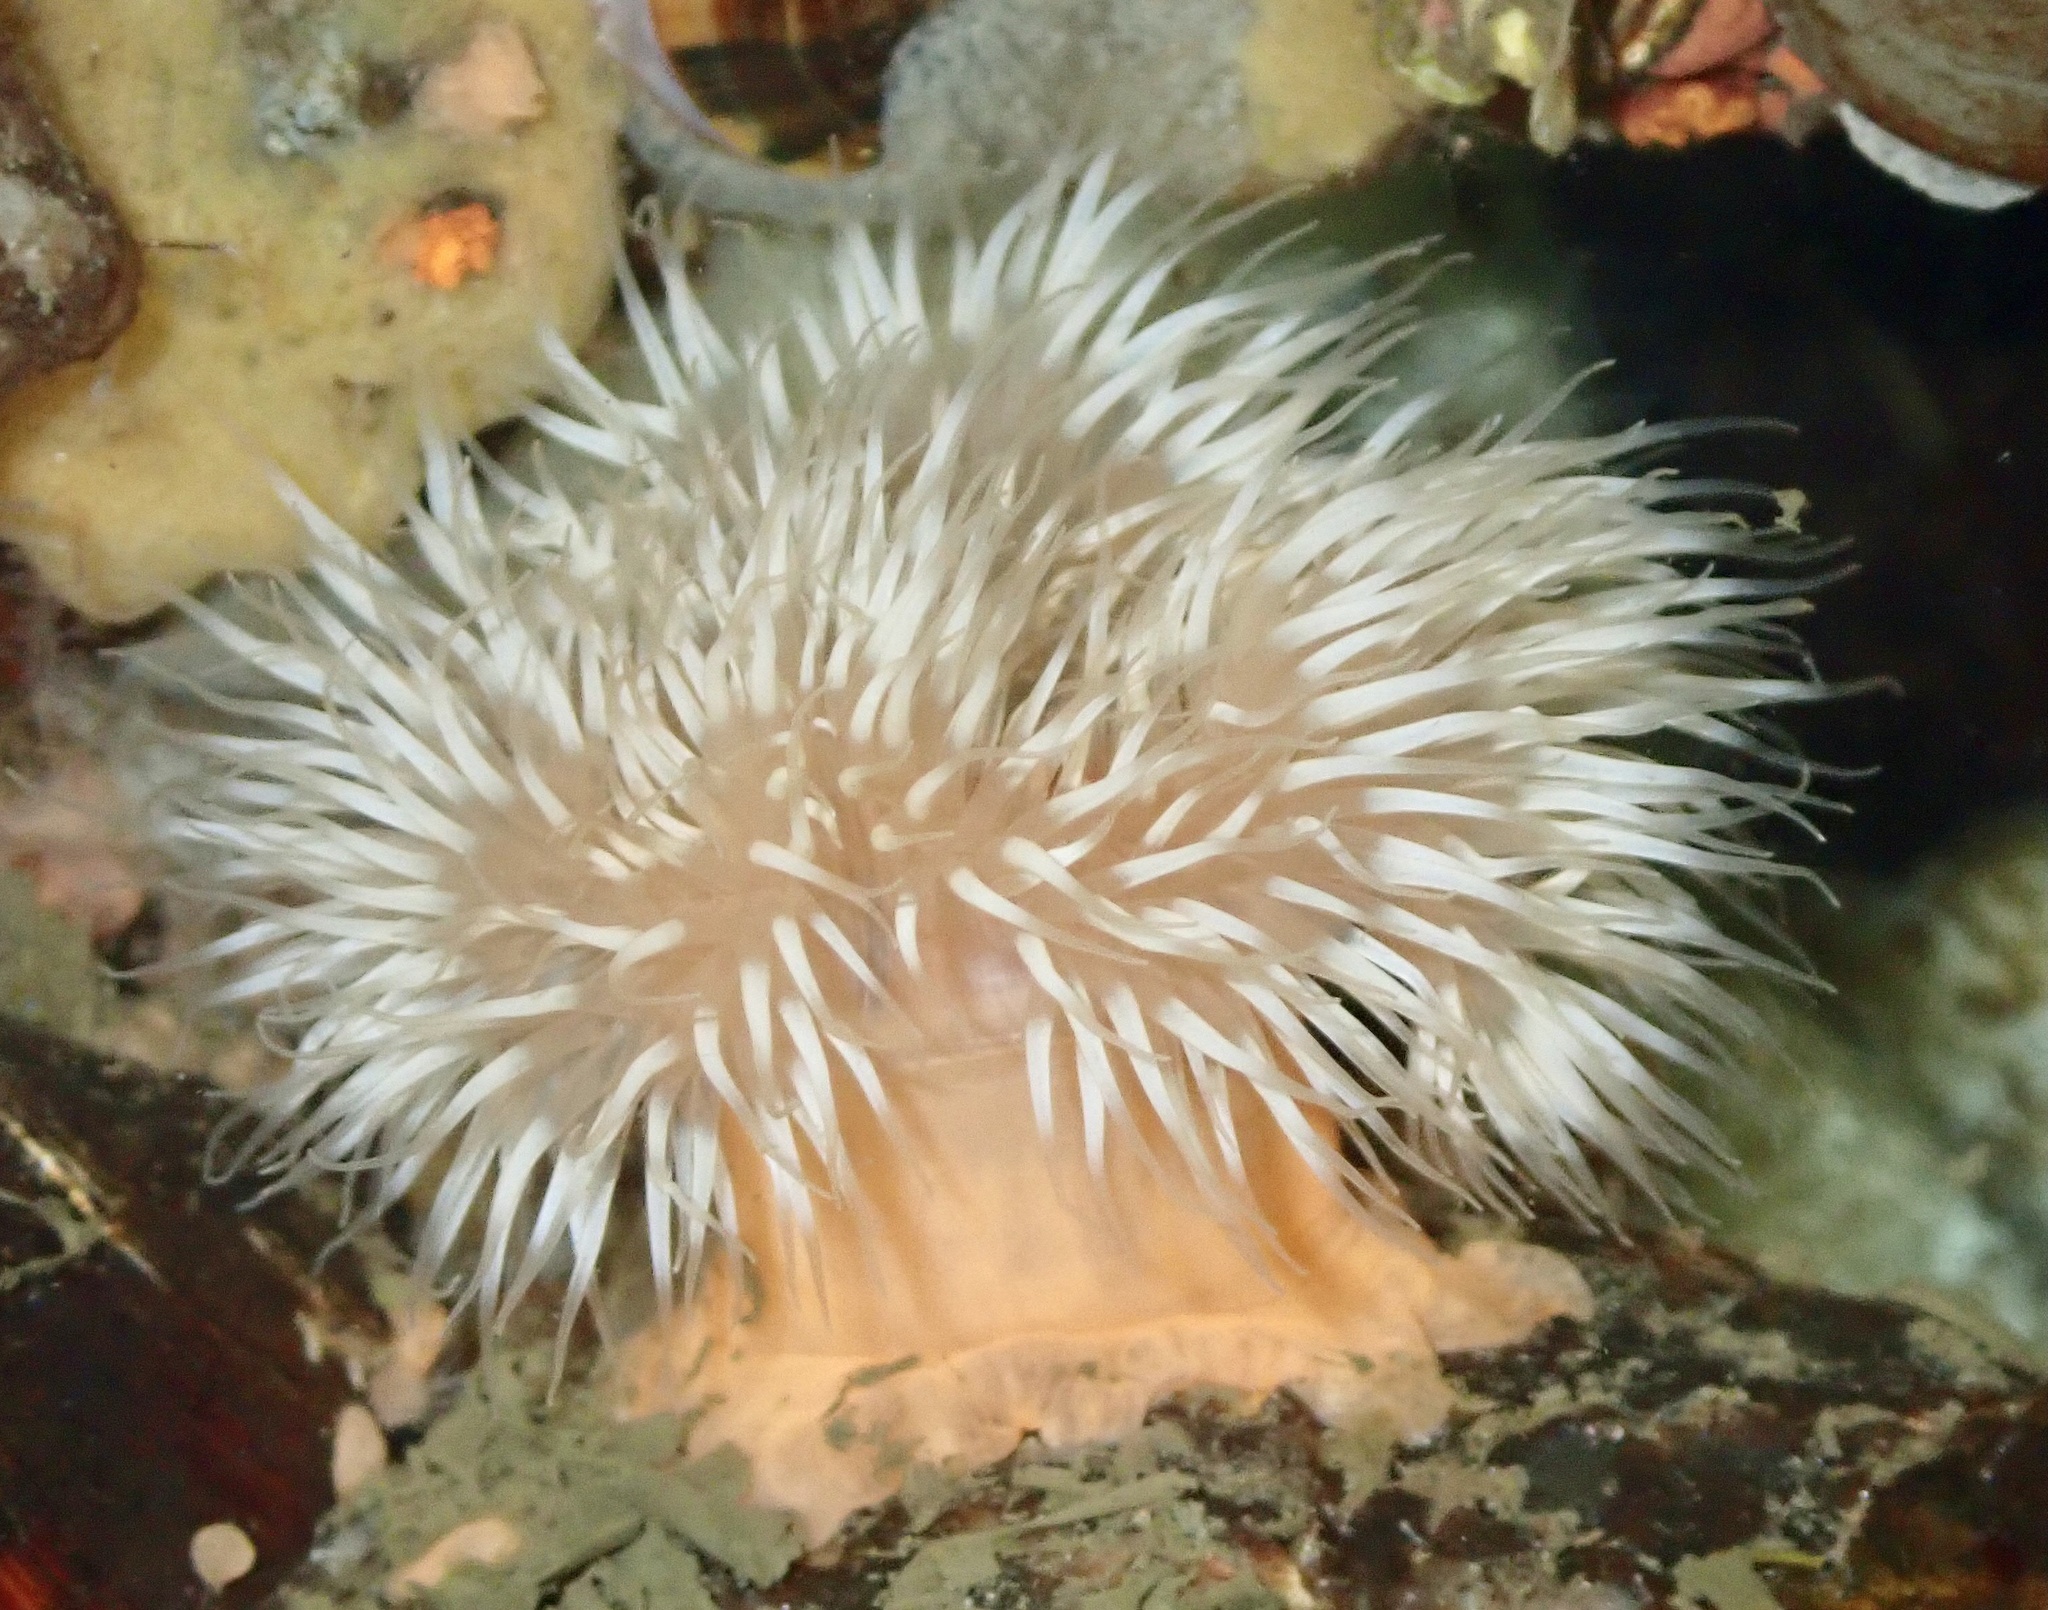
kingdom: Animalia
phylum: Cnidaria
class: Anthozoa
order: Actiniaria
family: Metridiidae
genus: Metridium
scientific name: Metridium senile
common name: Clonal plumose anemone
